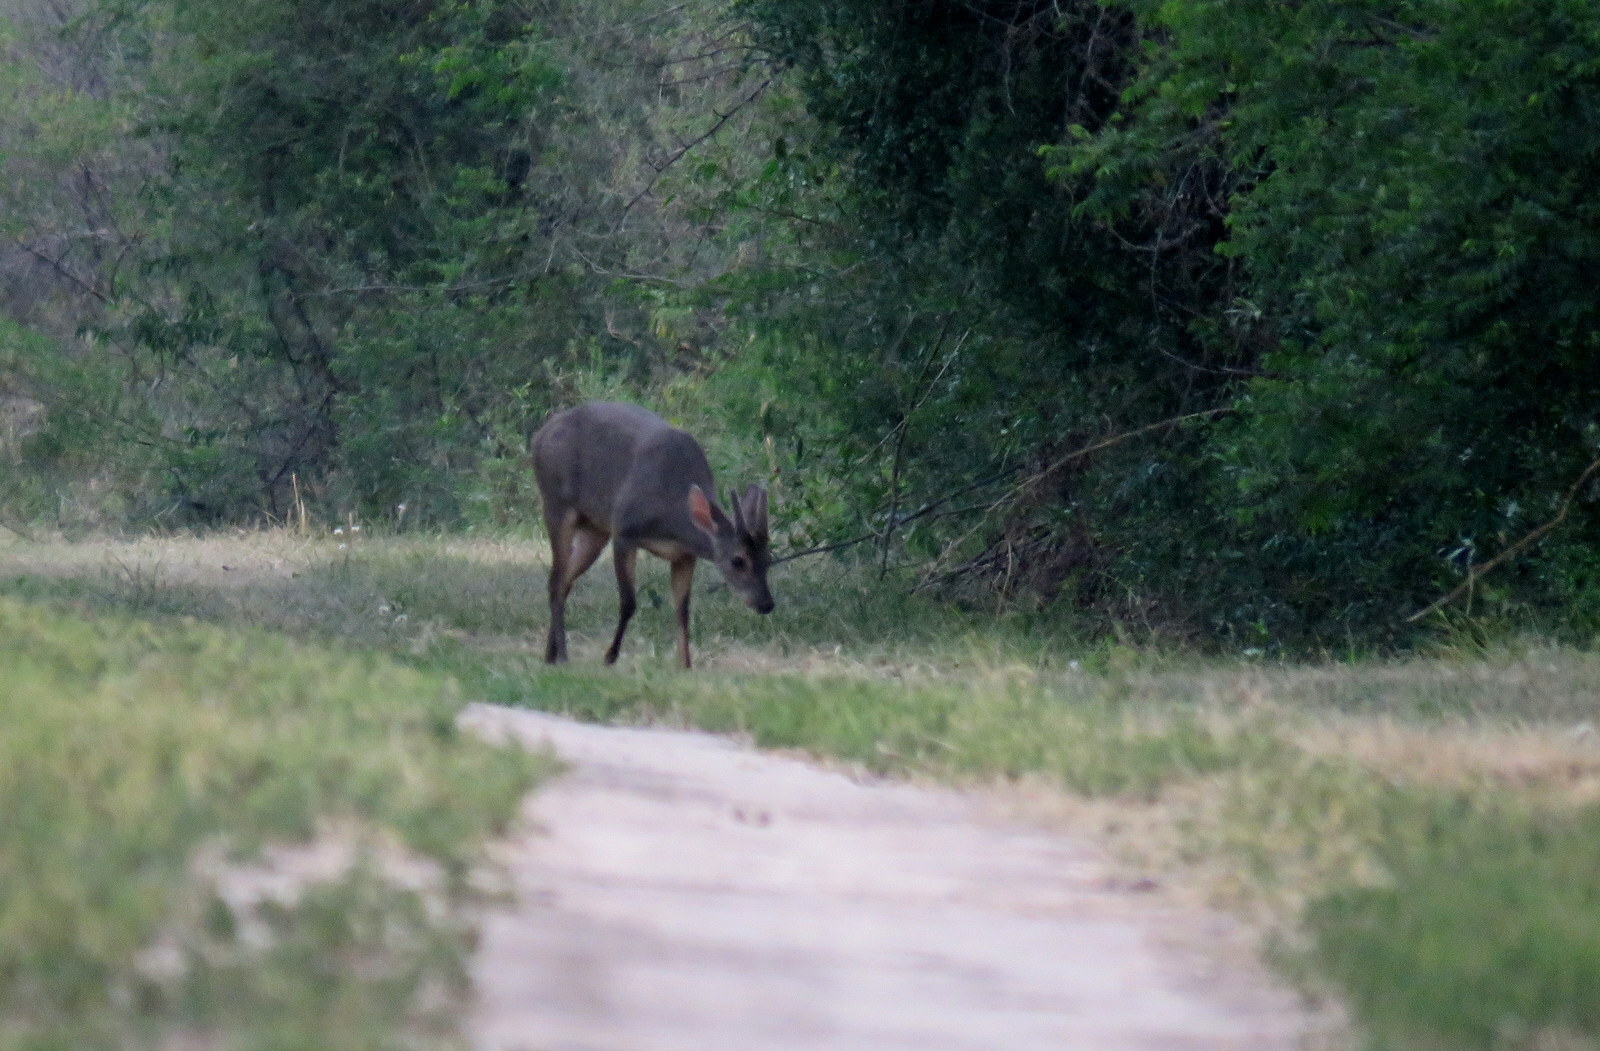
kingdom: Animalia
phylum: Chordata
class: Mammalia
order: Artiodactyla
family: Cervidae
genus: Mazama
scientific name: Mazama gouazoubira
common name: Gray brocket
